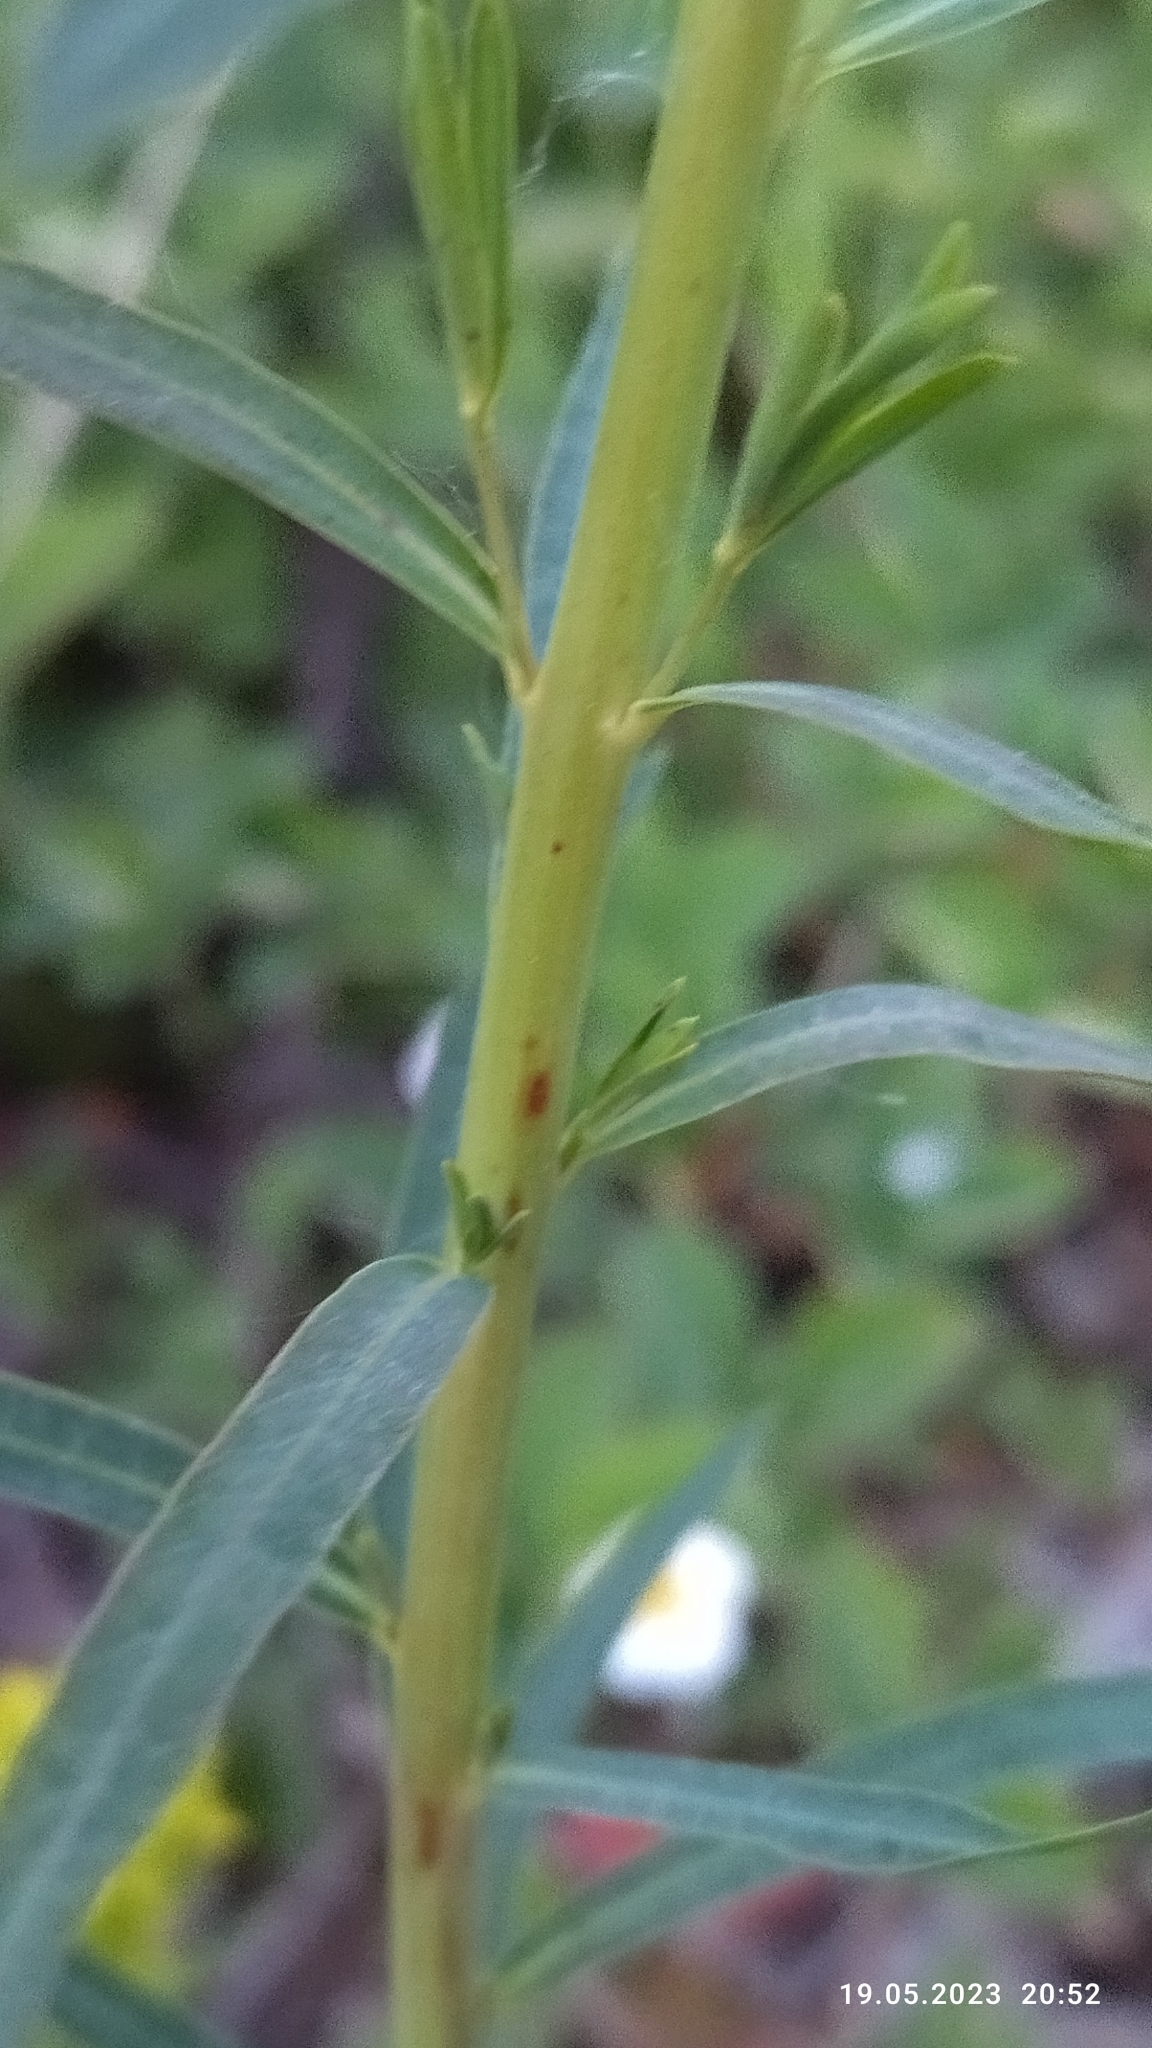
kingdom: Plantae
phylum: Tracheophyta
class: Magnoliopsida
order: Malpighiales
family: Euphorbiaceae
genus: Euphorbia
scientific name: Euphorbia virgata
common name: Leafy spurge
